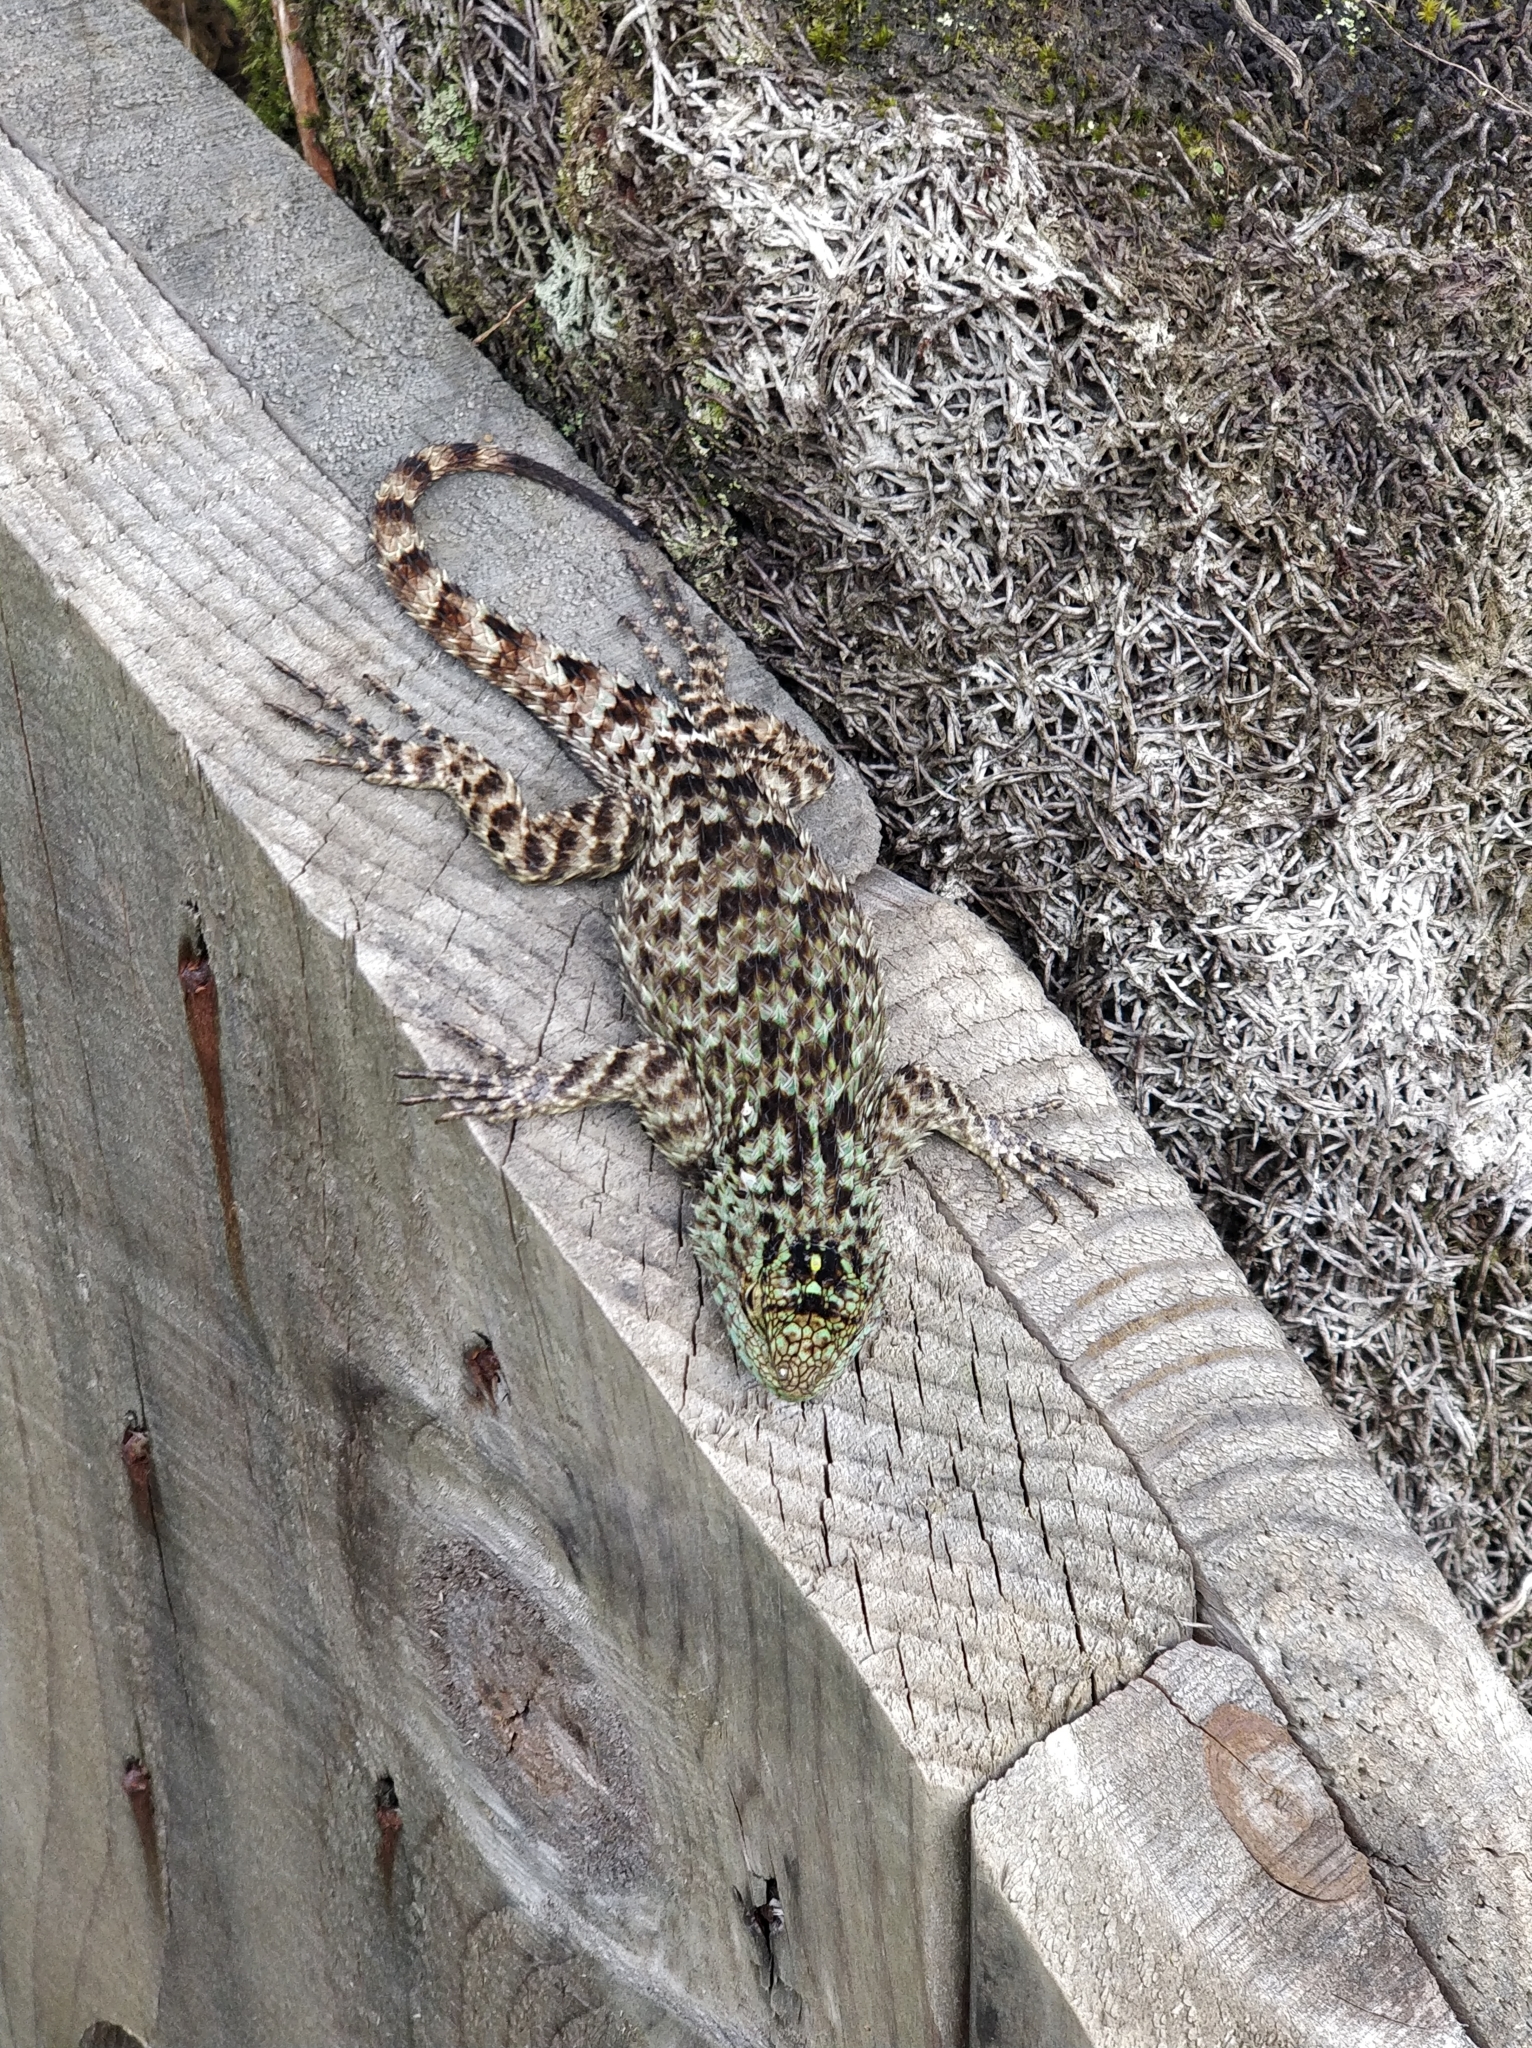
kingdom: Animalia
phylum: Chordata
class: Squamata
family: Phrynosomatidae
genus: Sceloporus
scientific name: Sceloporus schmidti
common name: Schmidt’s emerald lizard
